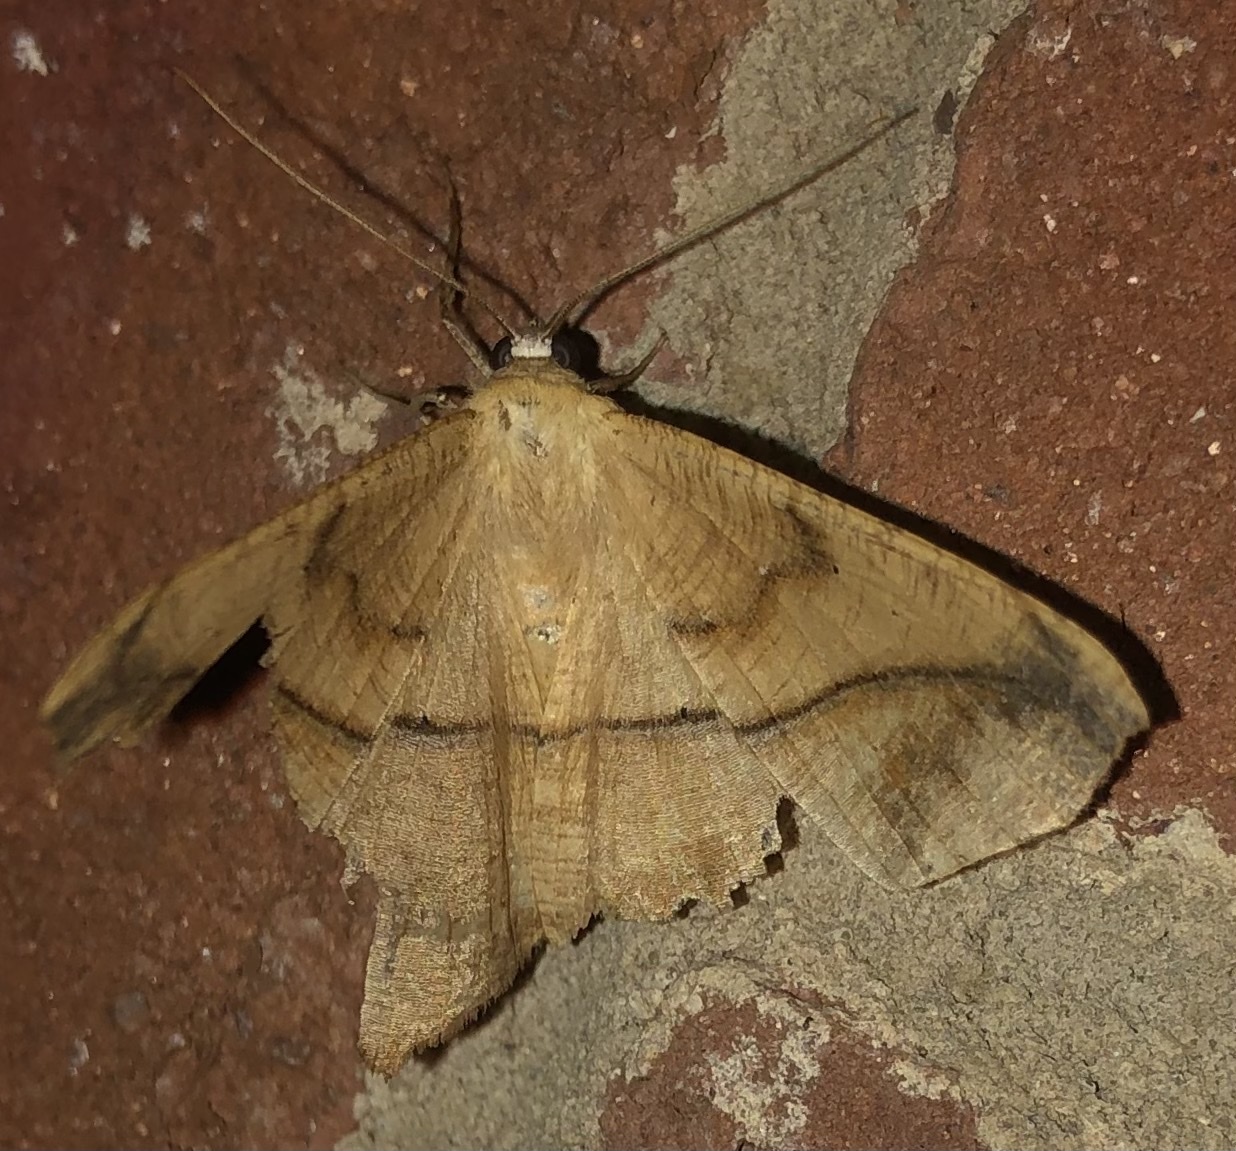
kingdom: Animalia
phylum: Arthropoda
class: Insecta
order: Lepidoptera
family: Geometridae
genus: Prochoerodes
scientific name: Prochoerodes lineola
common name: Large maple spanworm
